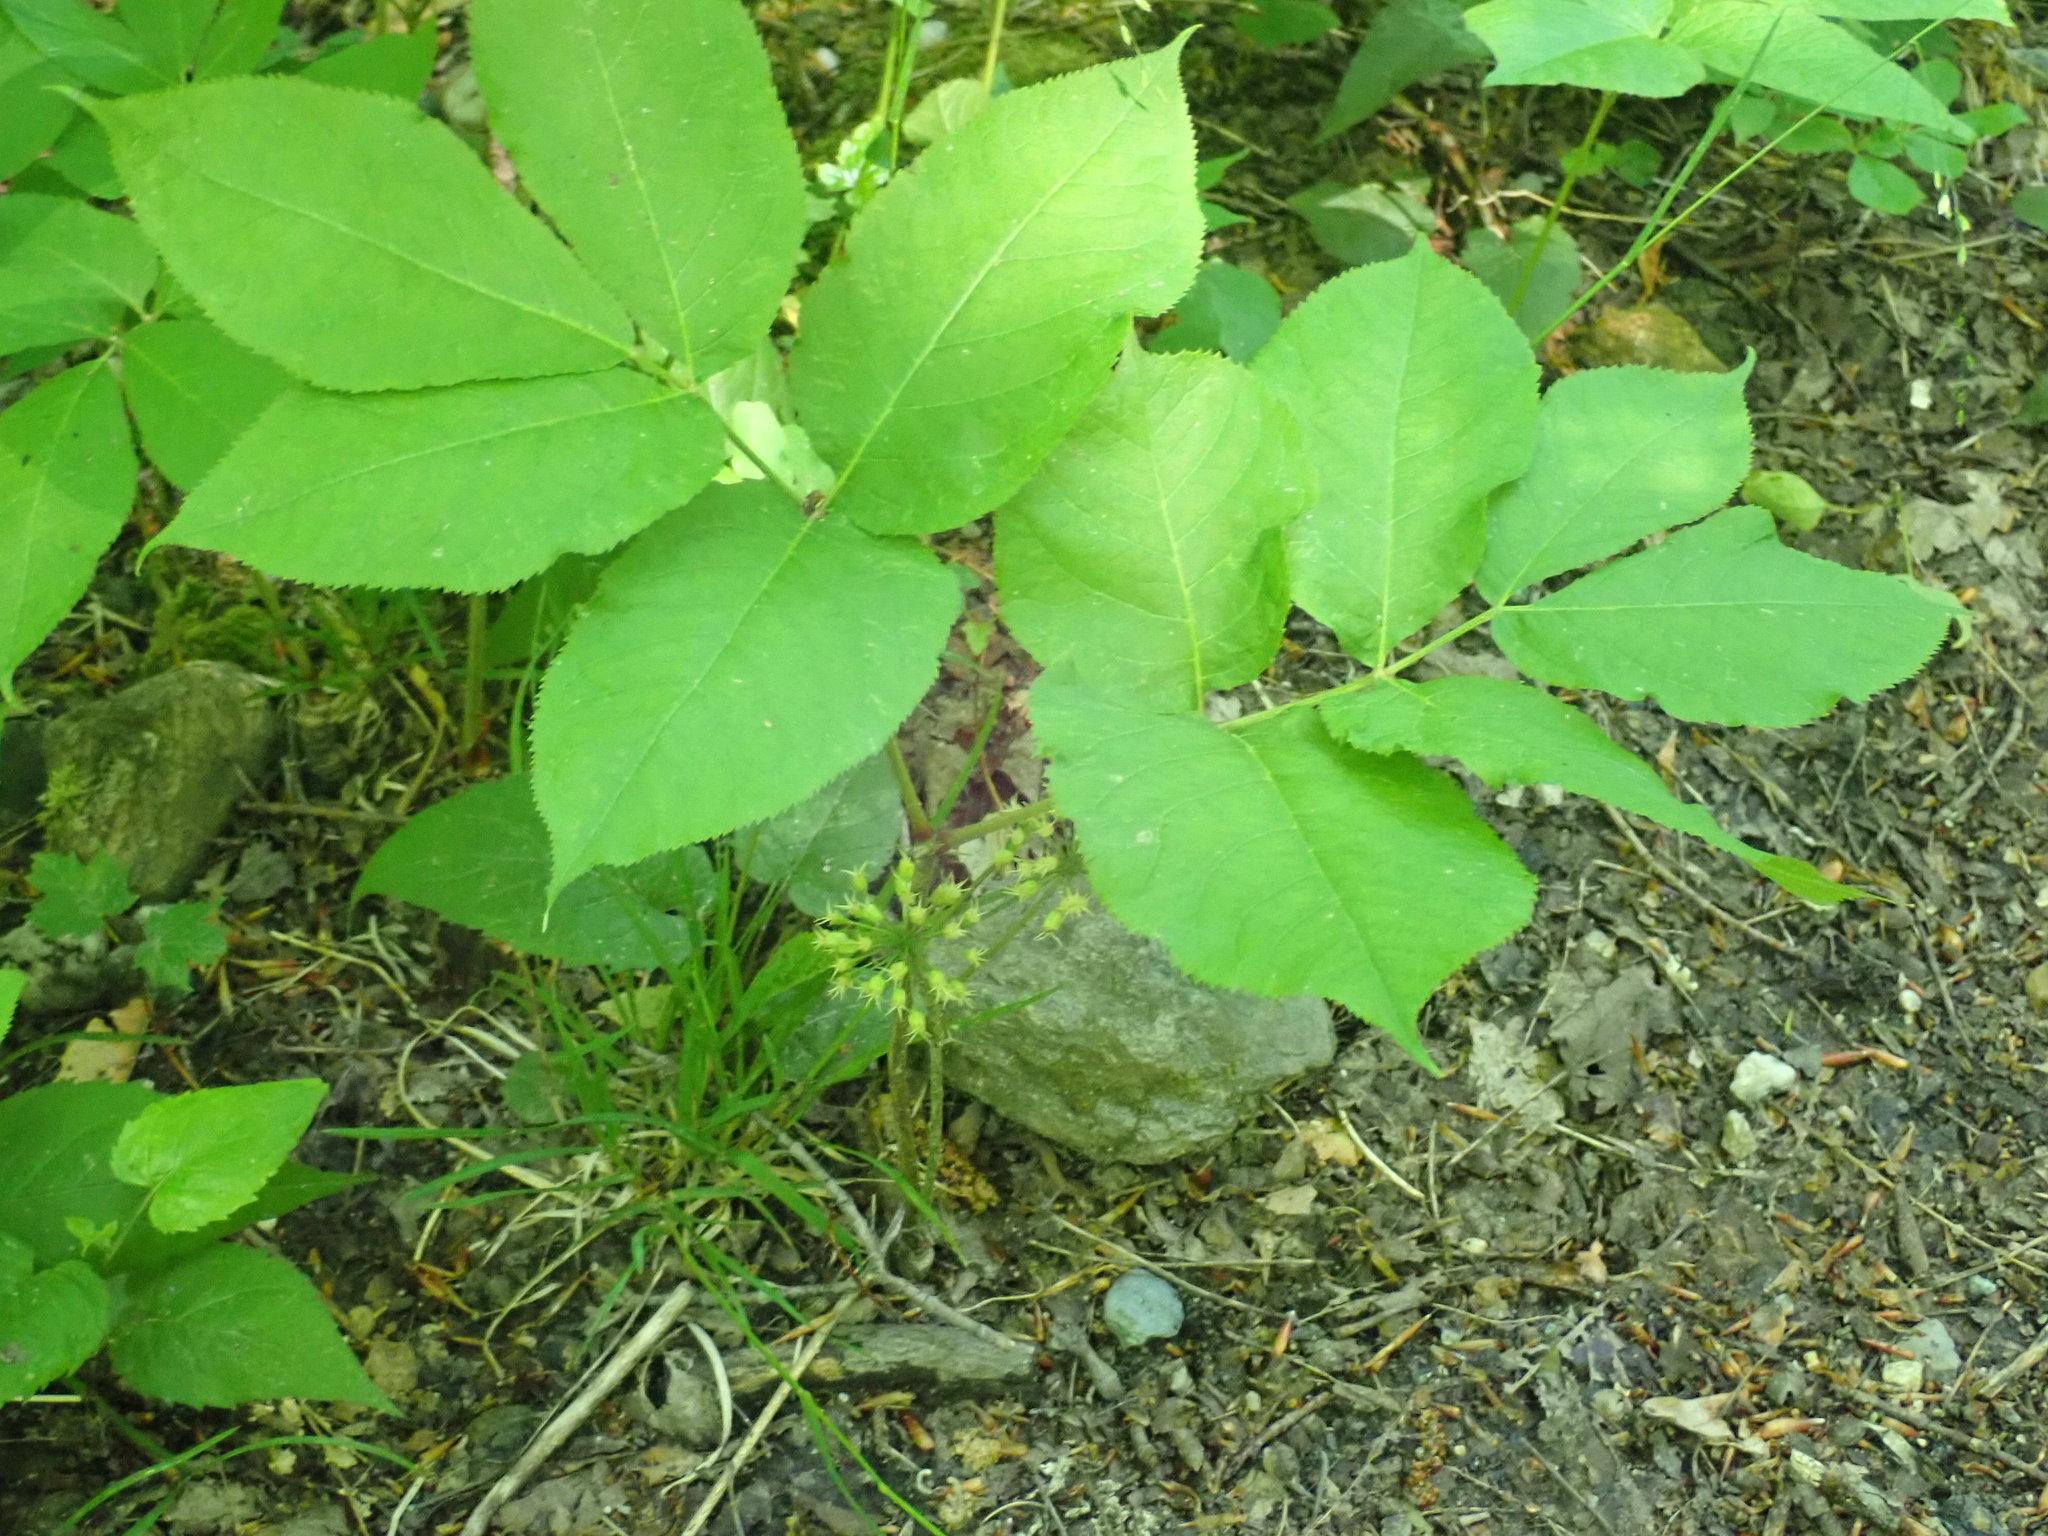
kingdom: Plantae
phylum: Tracheophyta
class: Magnoliopsida
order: Apiales
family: Araliaceae
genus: Aralia
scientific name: Aralia nudicaulis
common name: Wild sarsaparilla
